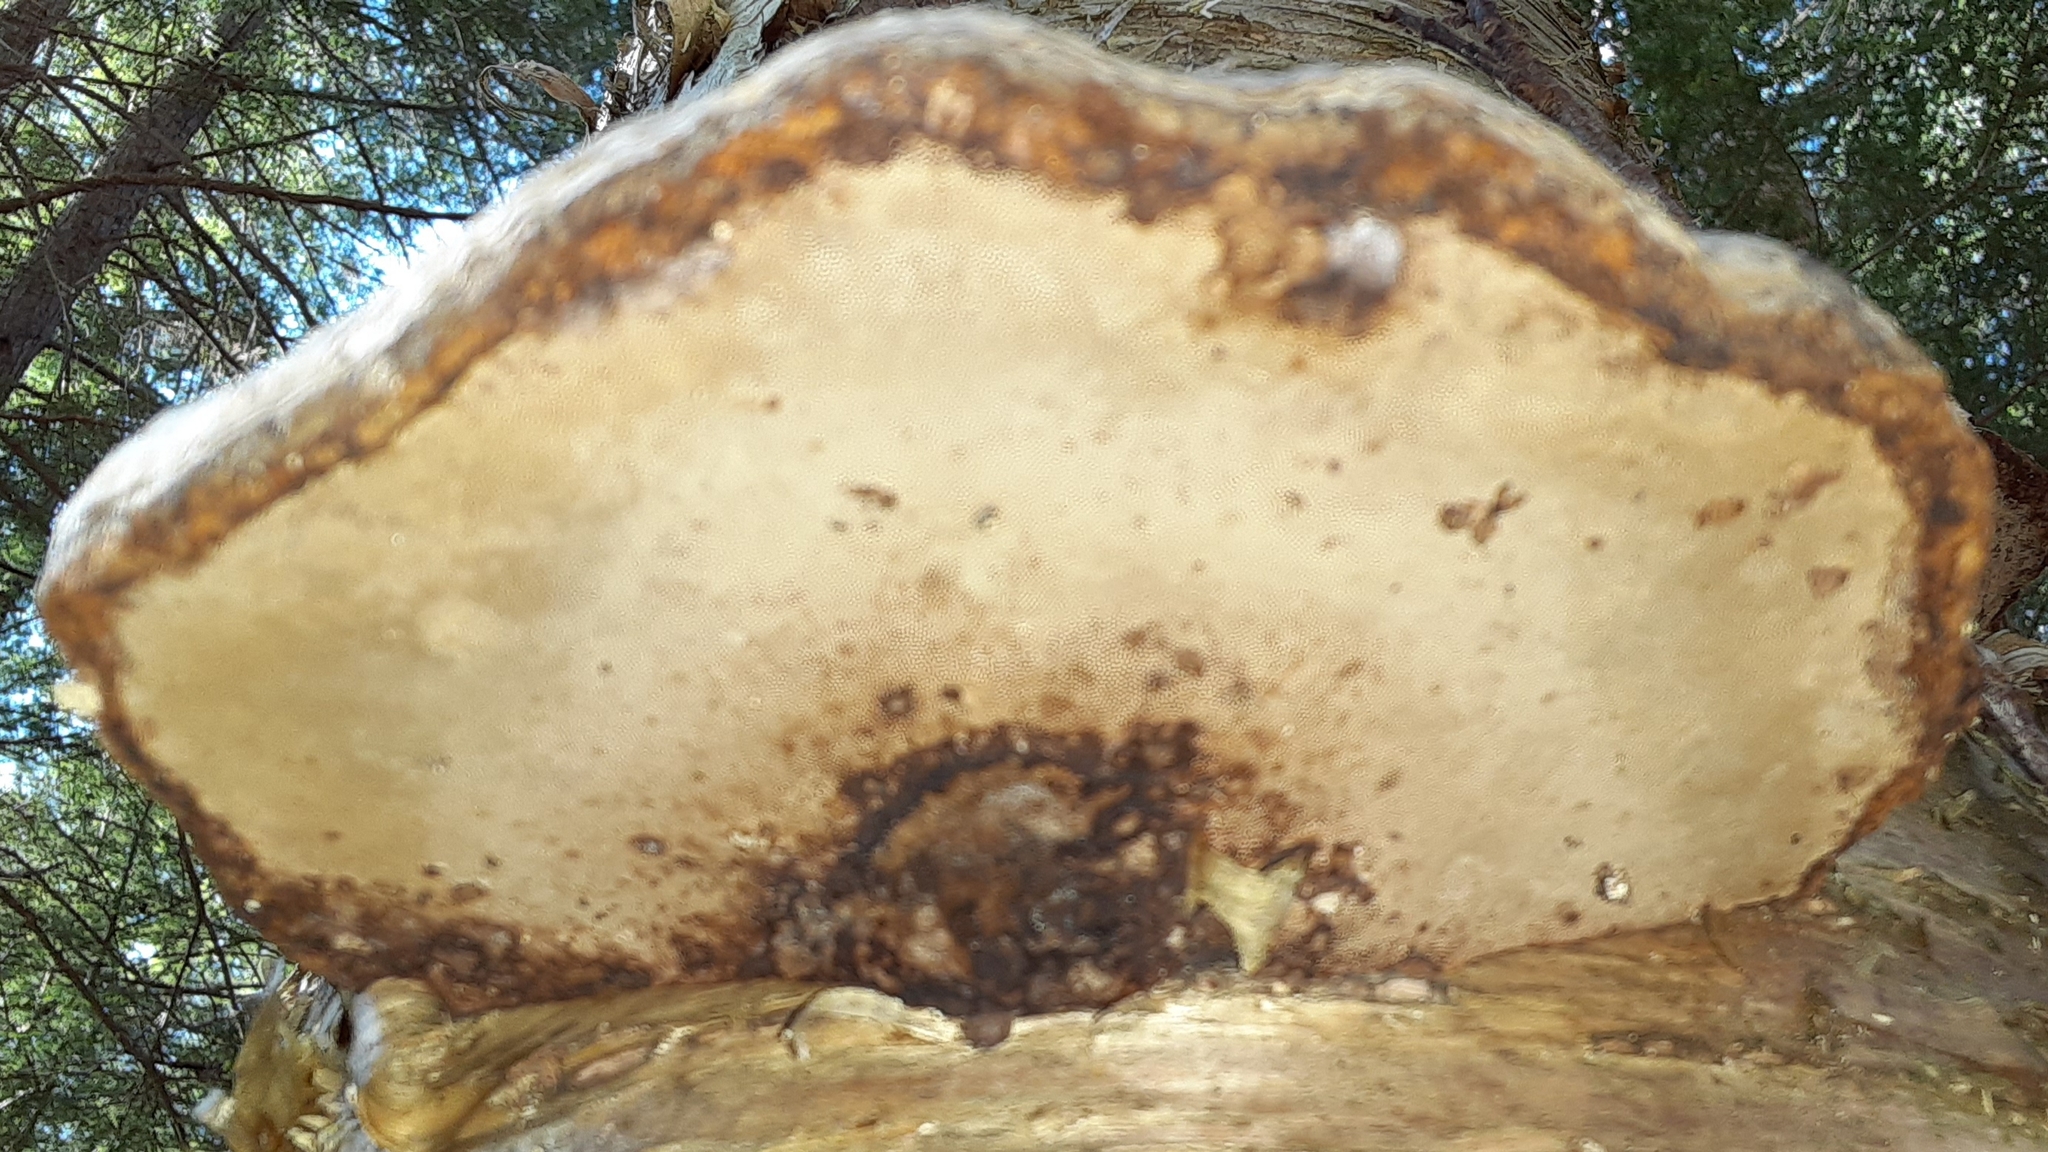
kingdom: Fungi
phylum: Basidiomycota
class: Agaricomycetes
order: Polyporales
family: Polyporaceae
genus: Fomes
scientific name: Fomes fomentarius
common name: Hoof fungus
